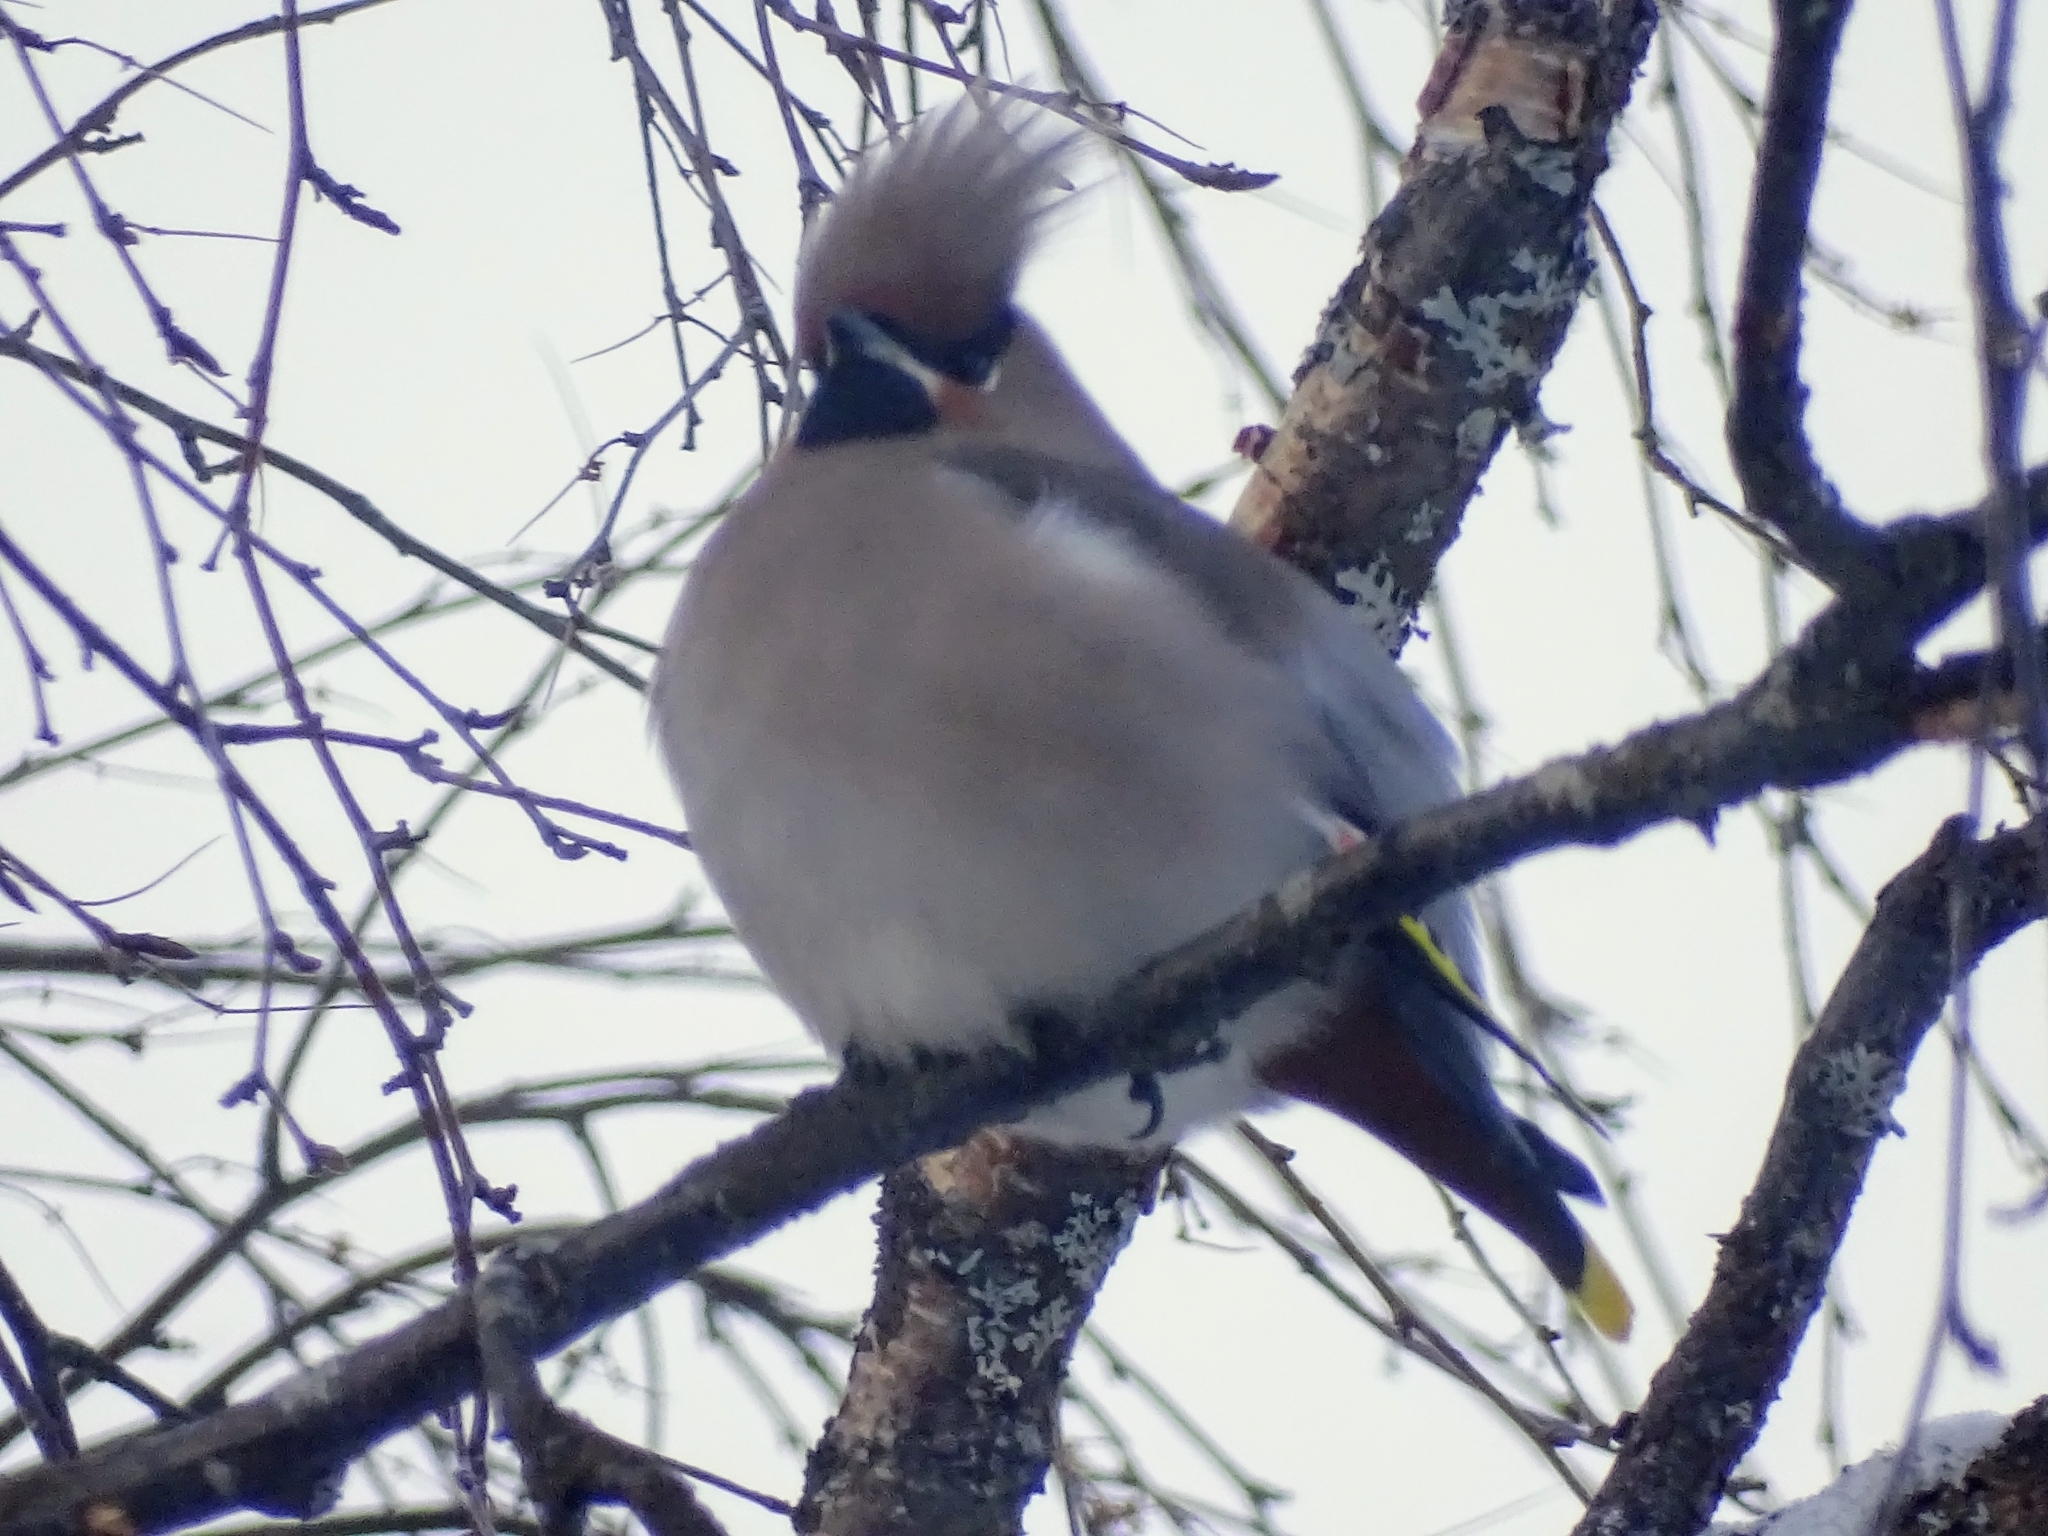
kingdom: Animalia
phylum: Chordata
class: Aves
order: Passeriformes
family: Bombycillidae
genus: Bombycilla
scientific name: Bombycilla garrulus
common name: Bohemian waxwing
